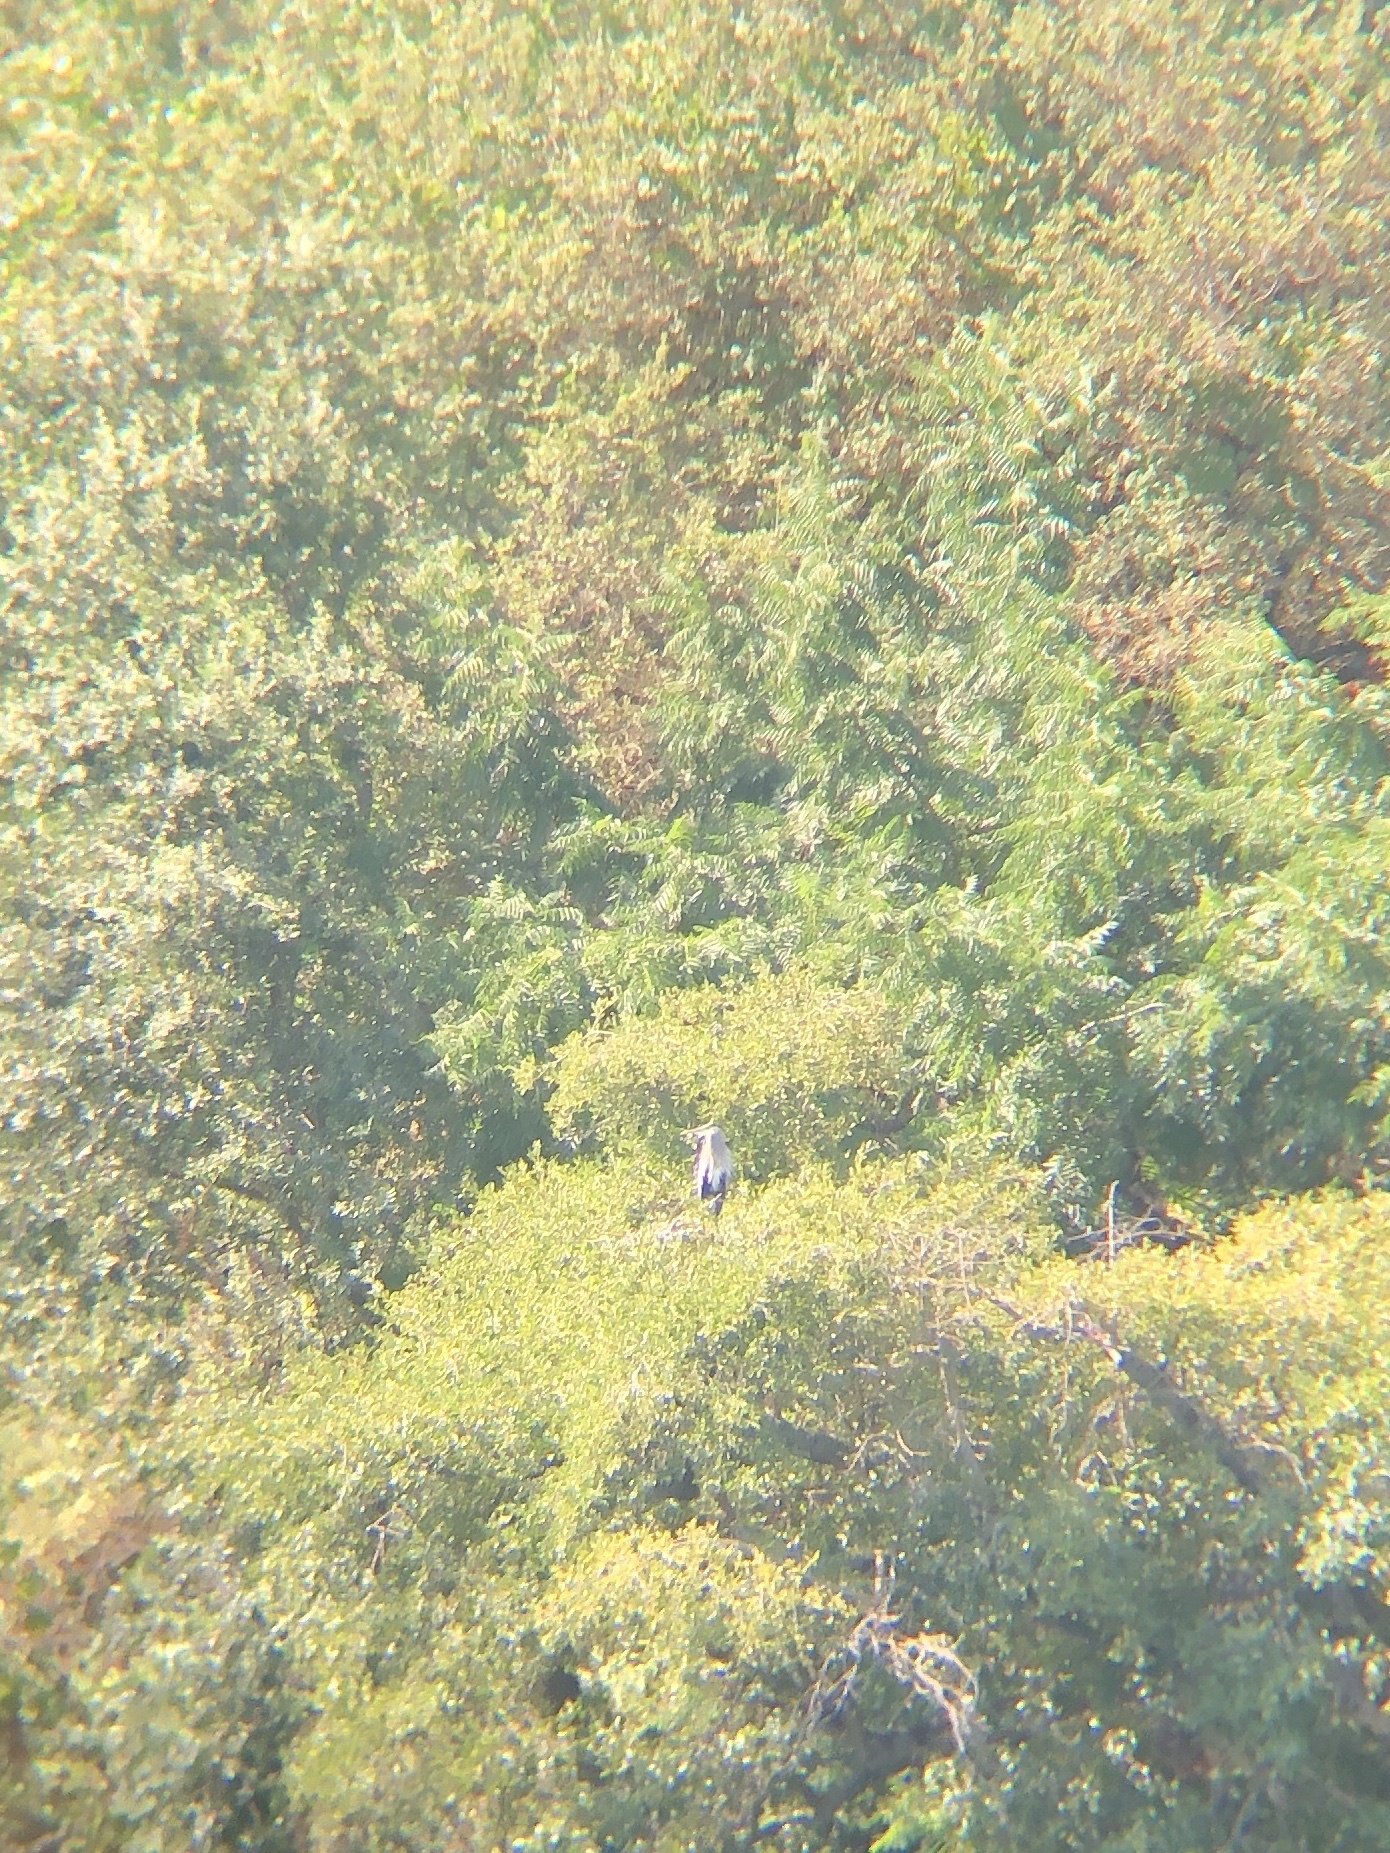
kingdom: Animalia
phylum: Chordata
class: Aves
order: Pelecaniformes
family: Ardeidae
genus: Ardea
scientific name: Ardea herodias
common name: Great blue heron
